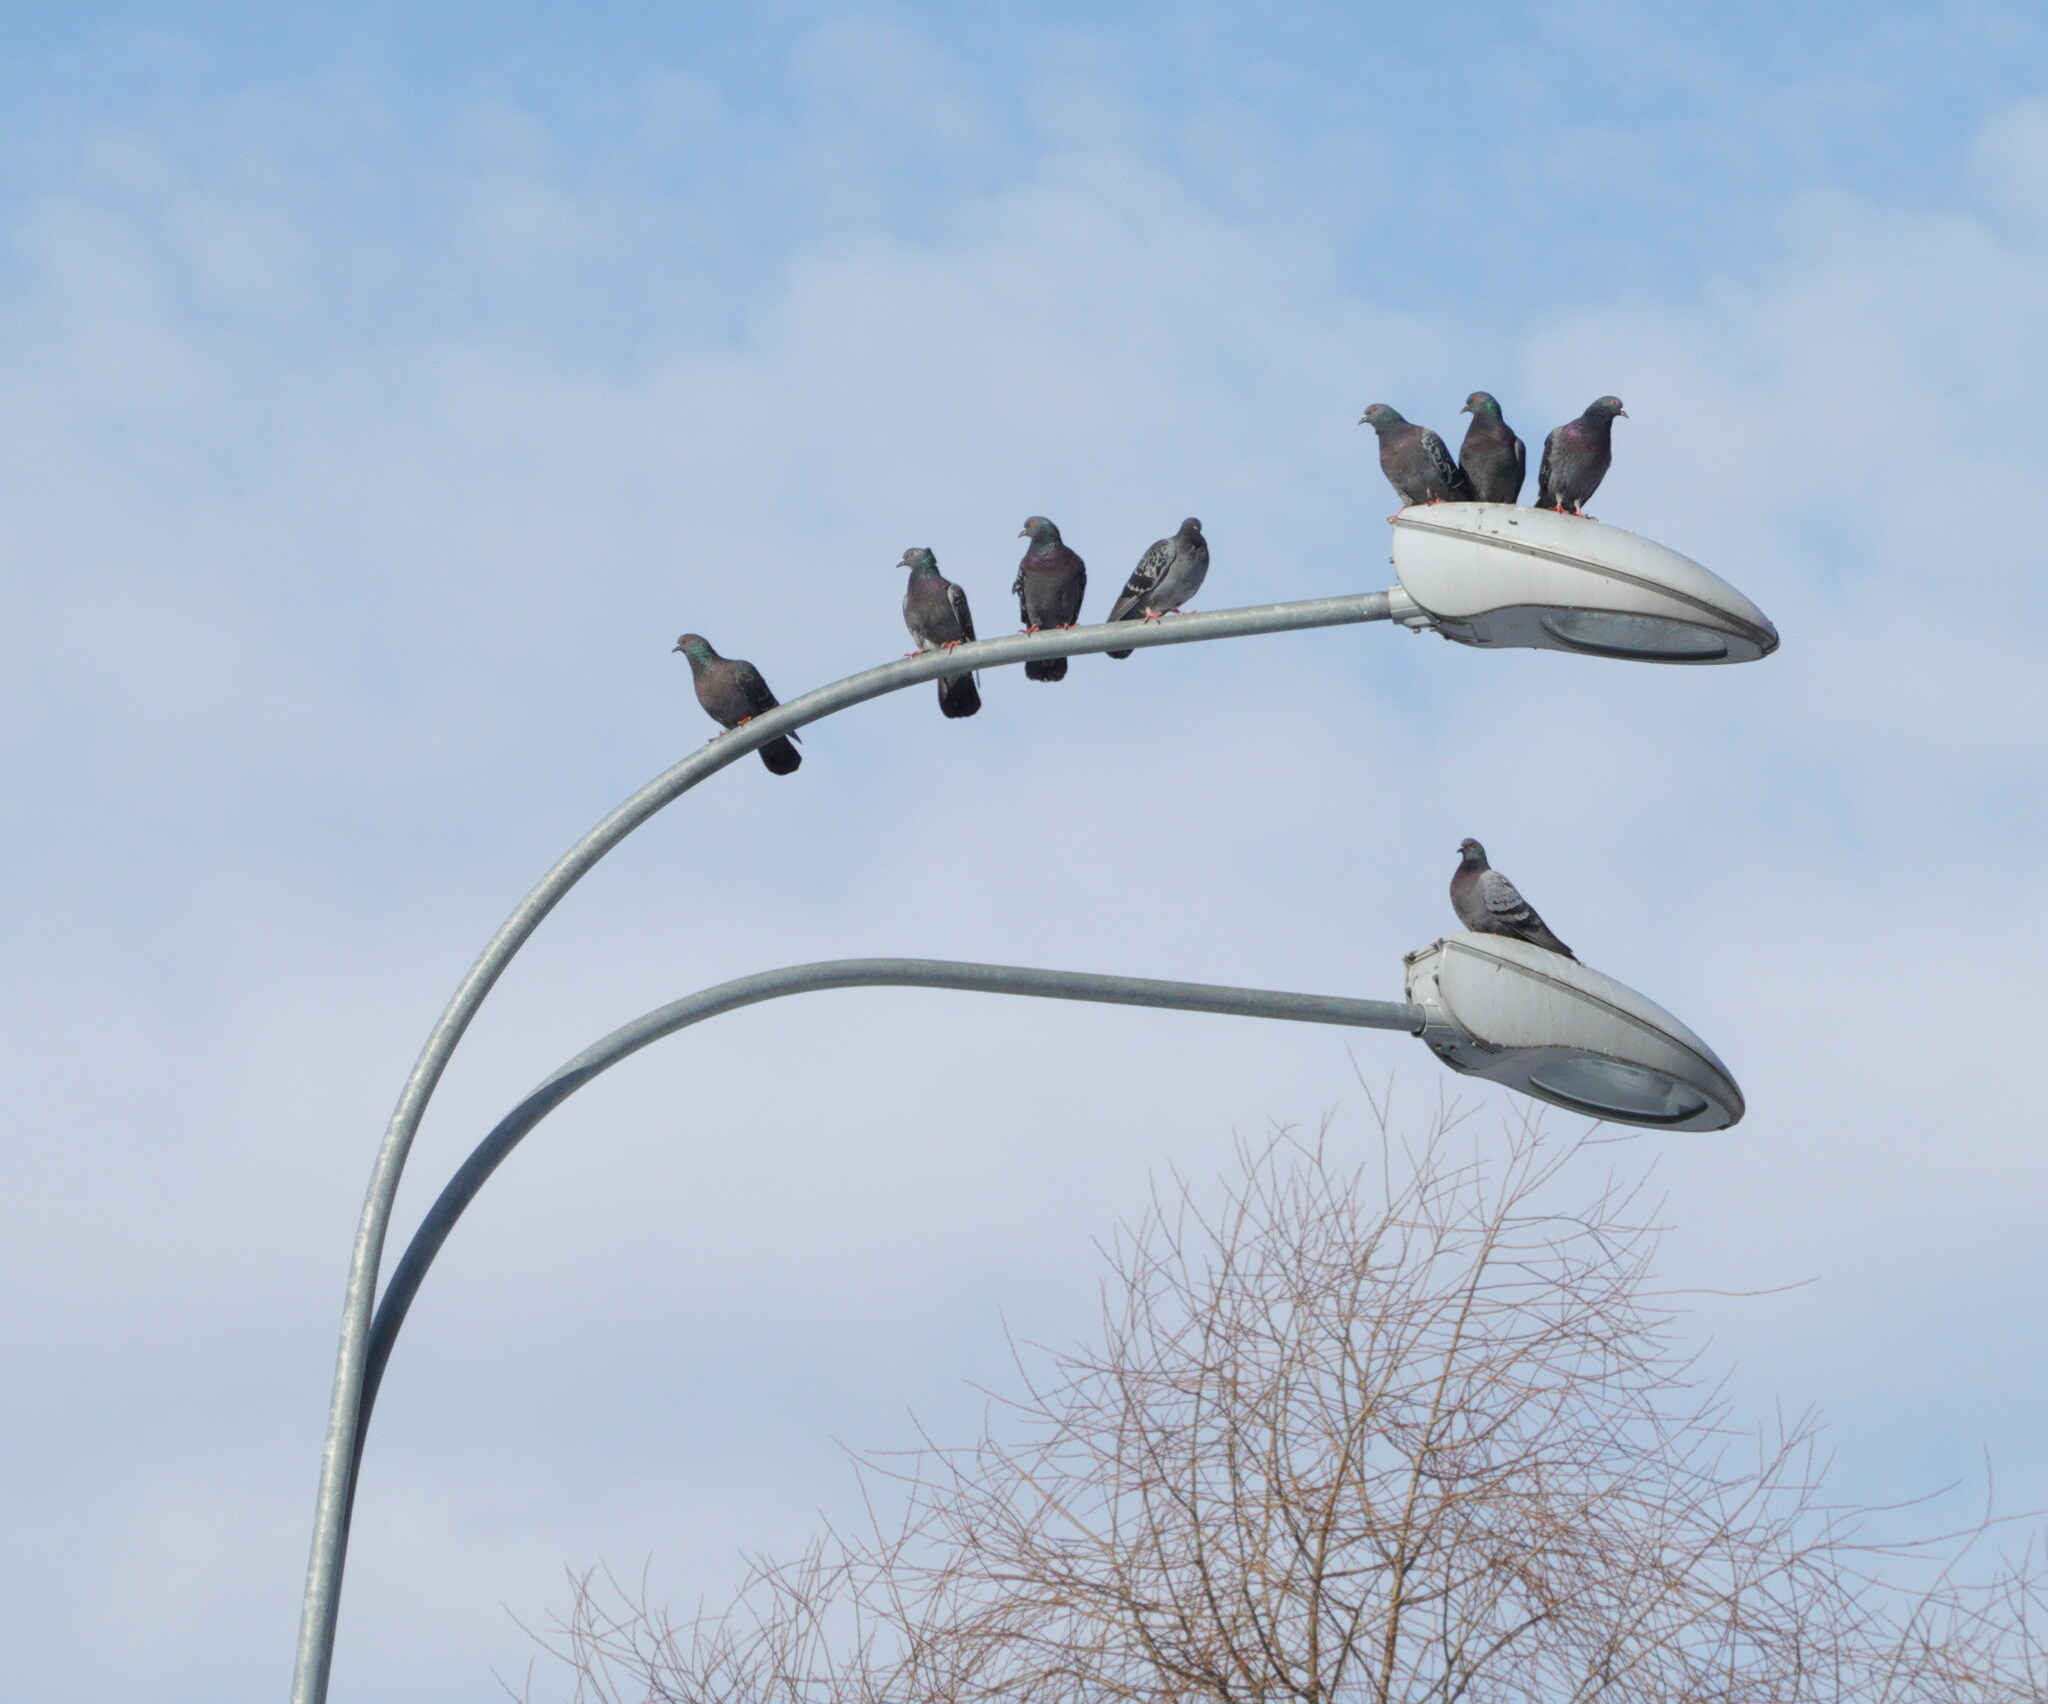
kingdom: Animalia
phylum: Chordata
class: Aves
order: Columbiformes
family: Columbidae
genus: Columba
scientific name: Columba livia
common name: Rock pigeon
